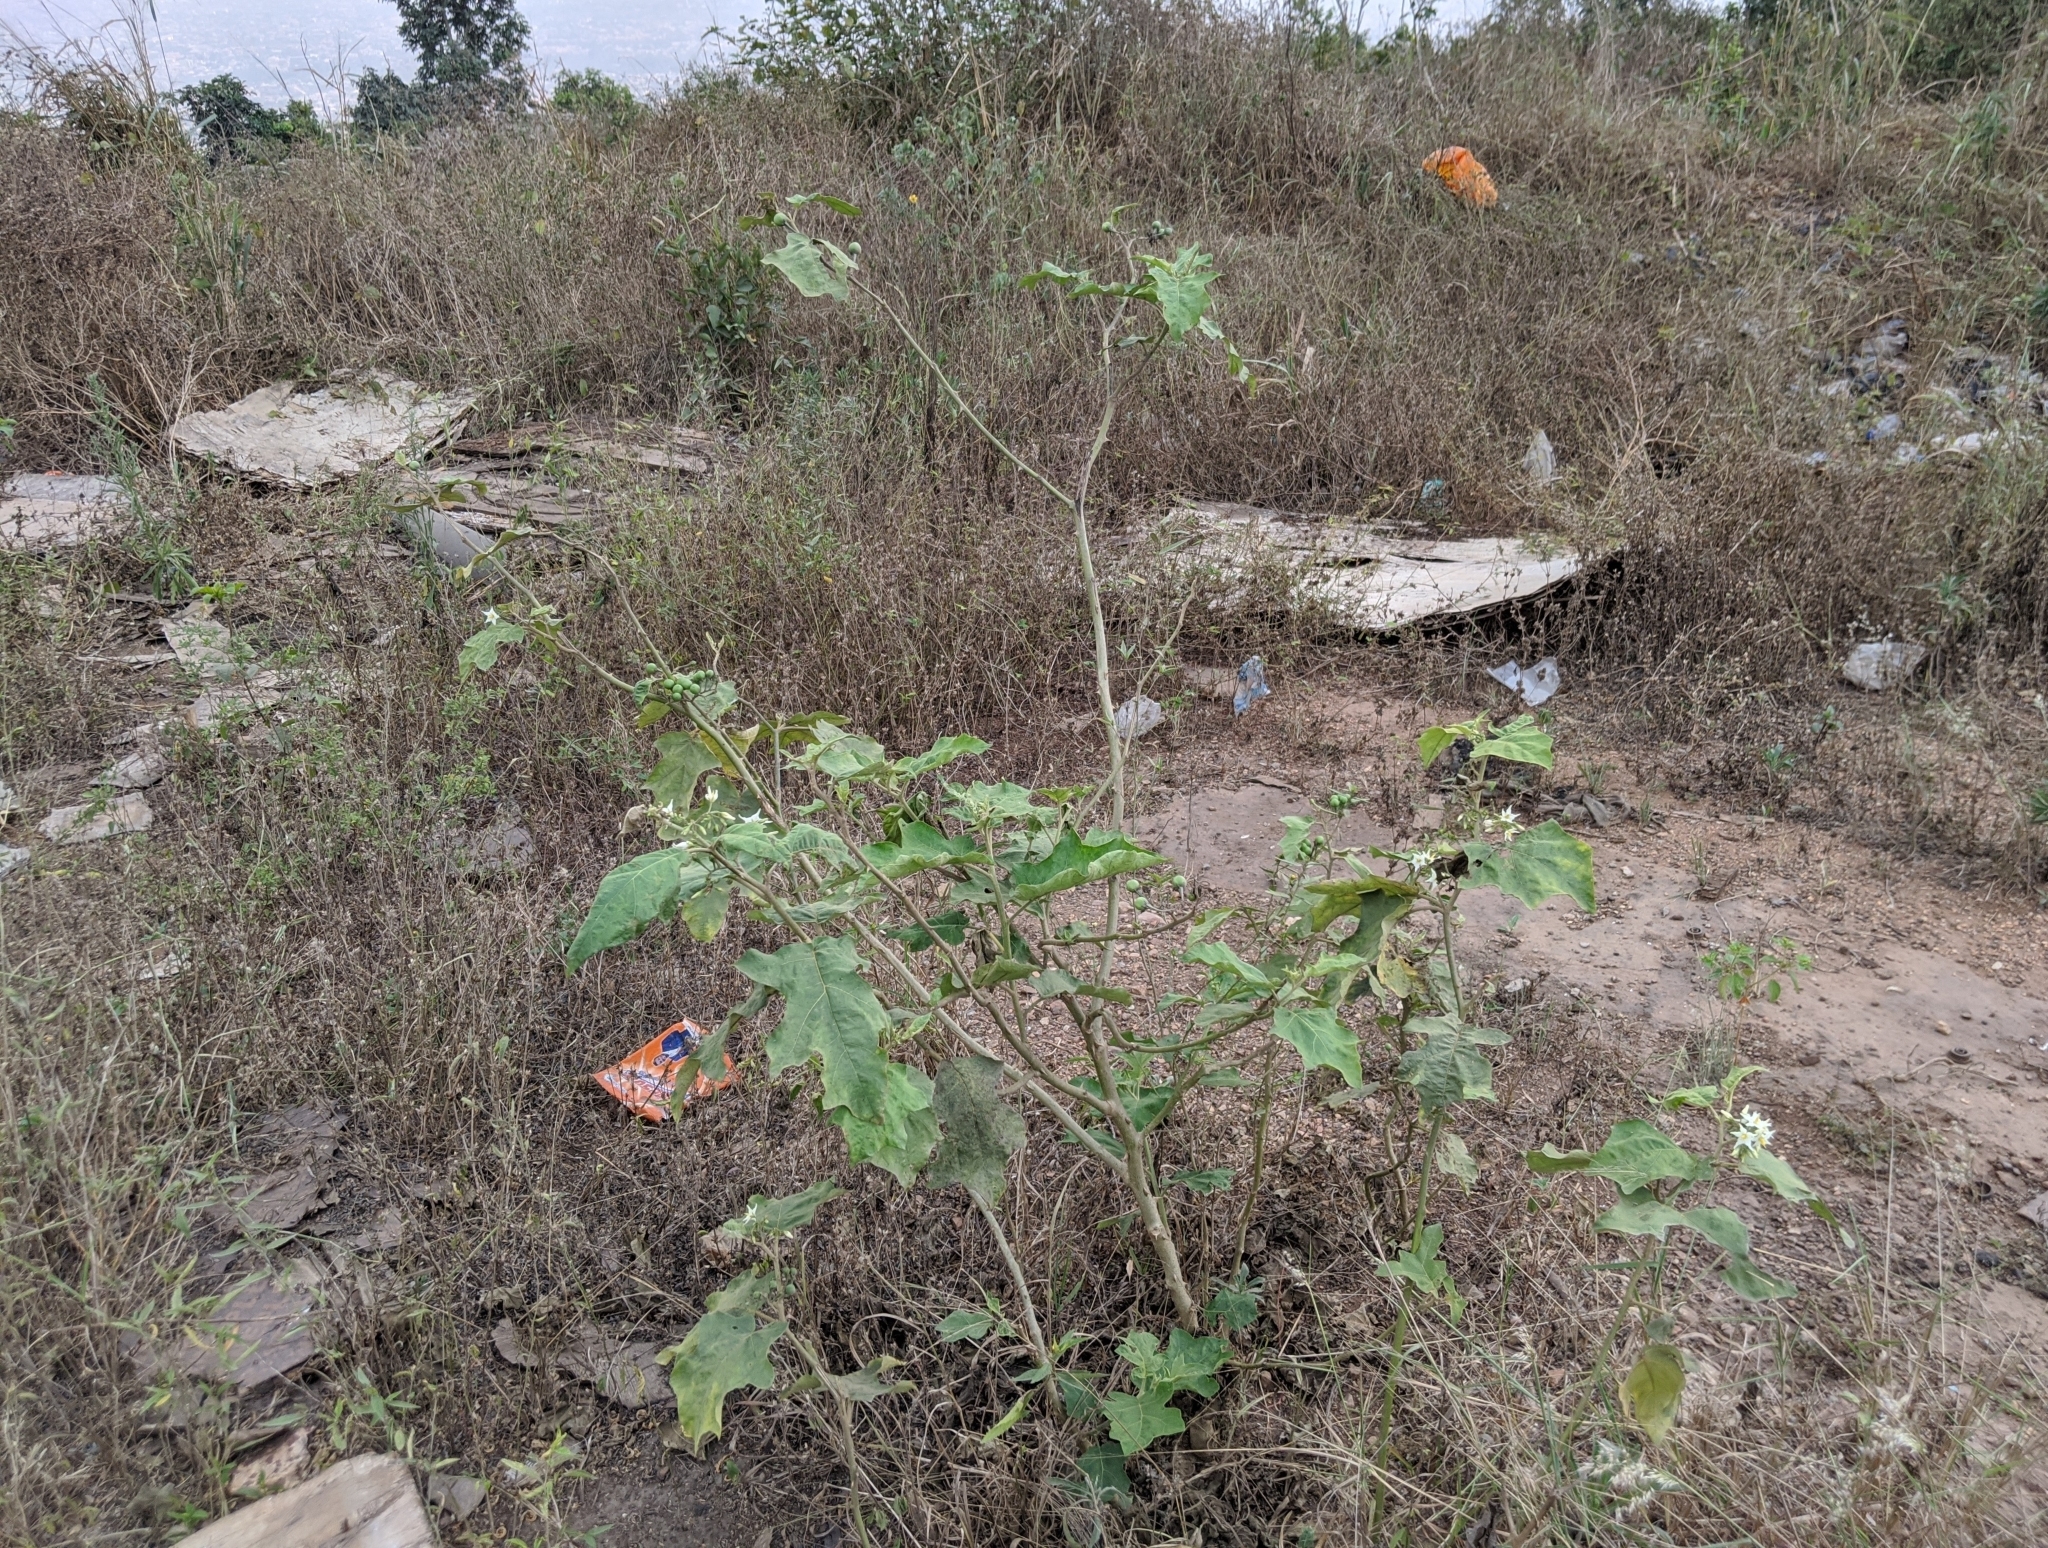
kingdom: Plantae
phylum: Tracheophyta
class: Magnoliopsida
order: Solanales
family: Solanaceae
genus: Solanum
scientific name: Solanum torvum
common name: Turkey berry
